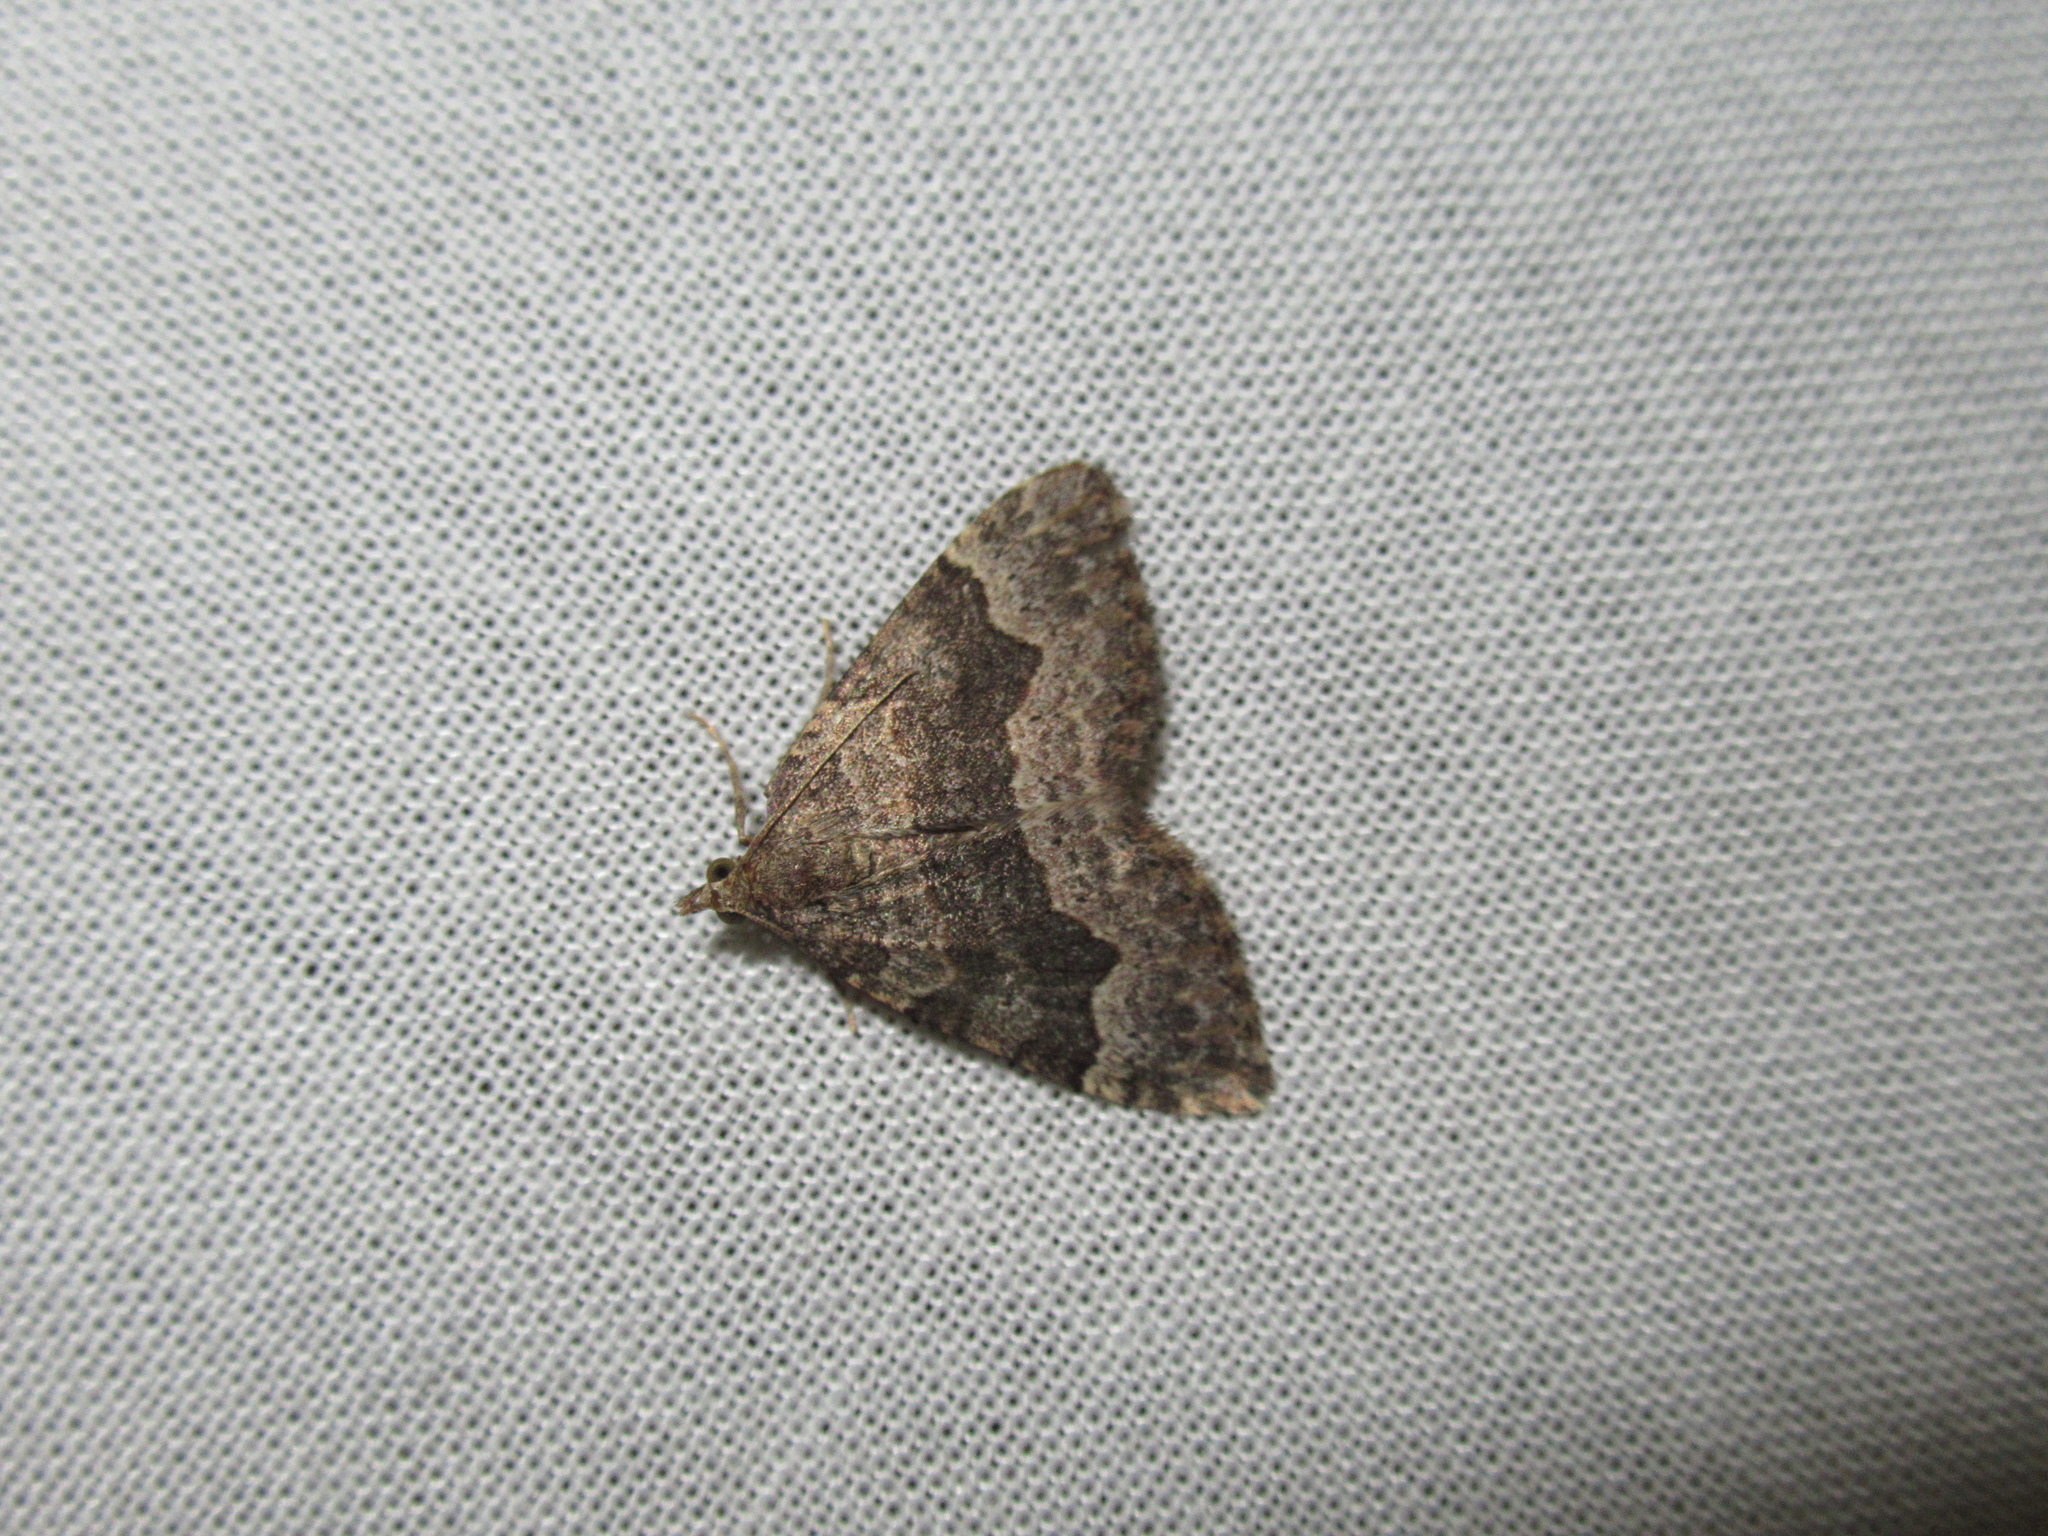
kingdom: Animalia
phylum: Arthropoda
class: Insecta
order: Lepidoptera
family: Geometridae
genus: Epyaxa
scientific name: Epyaxa rosearia
